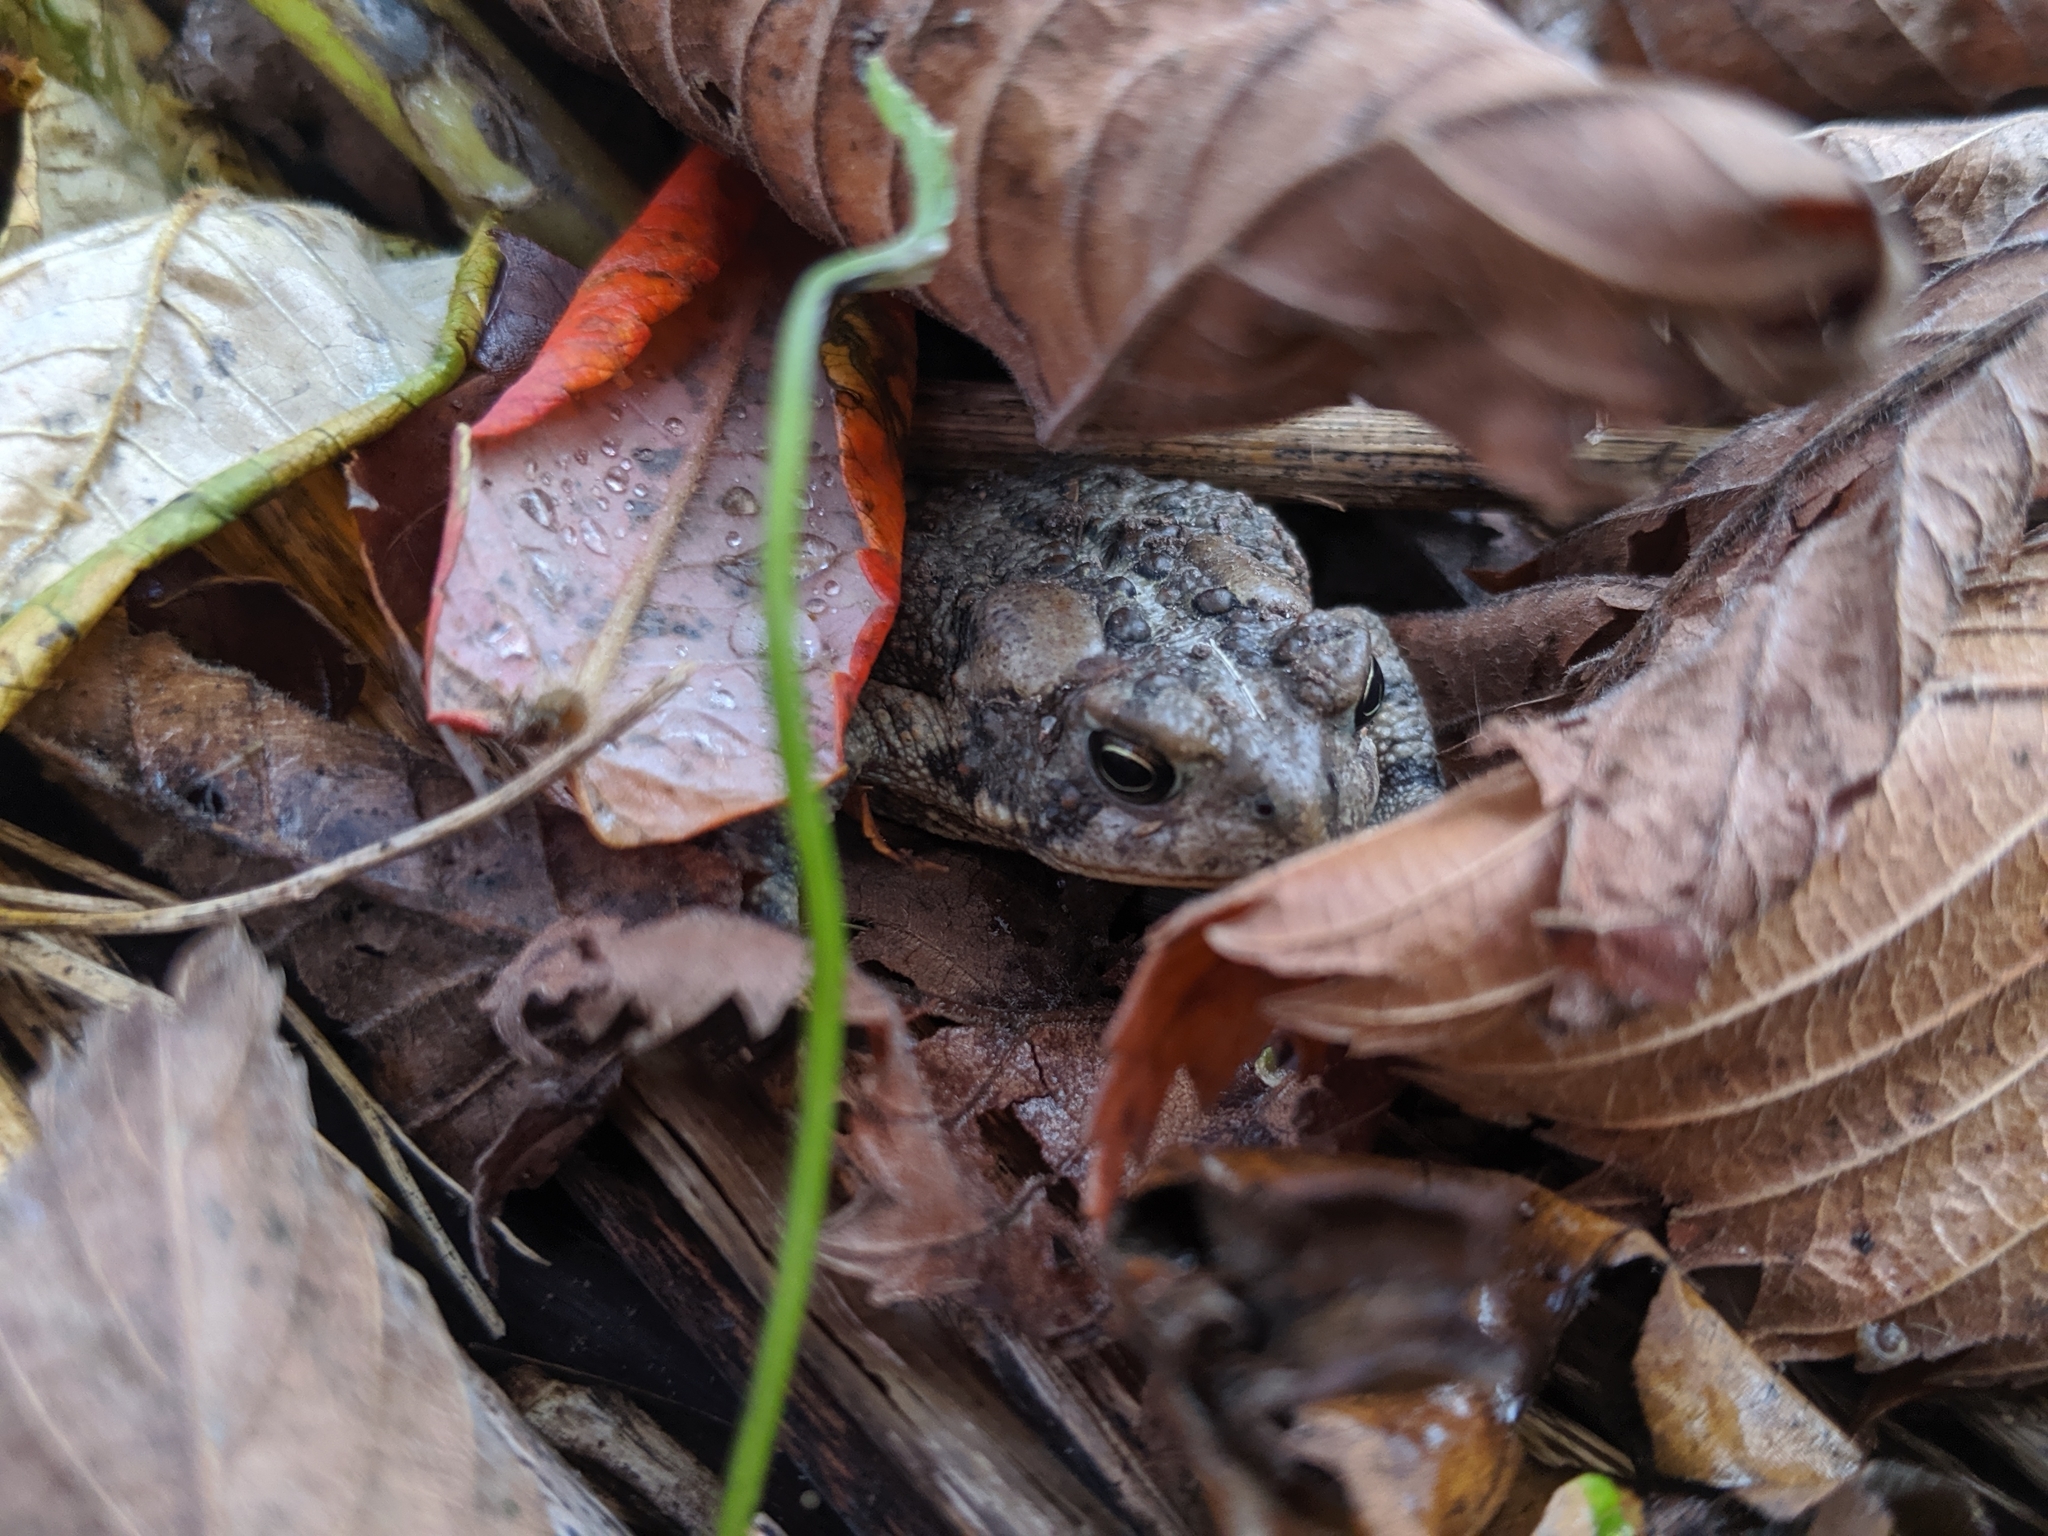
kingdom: Animalia
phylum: Chordata
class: Amphibia
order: Anura
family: Bufonidae
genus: Anaxyrus
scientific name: Anaxyrus americanus
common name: American toad
